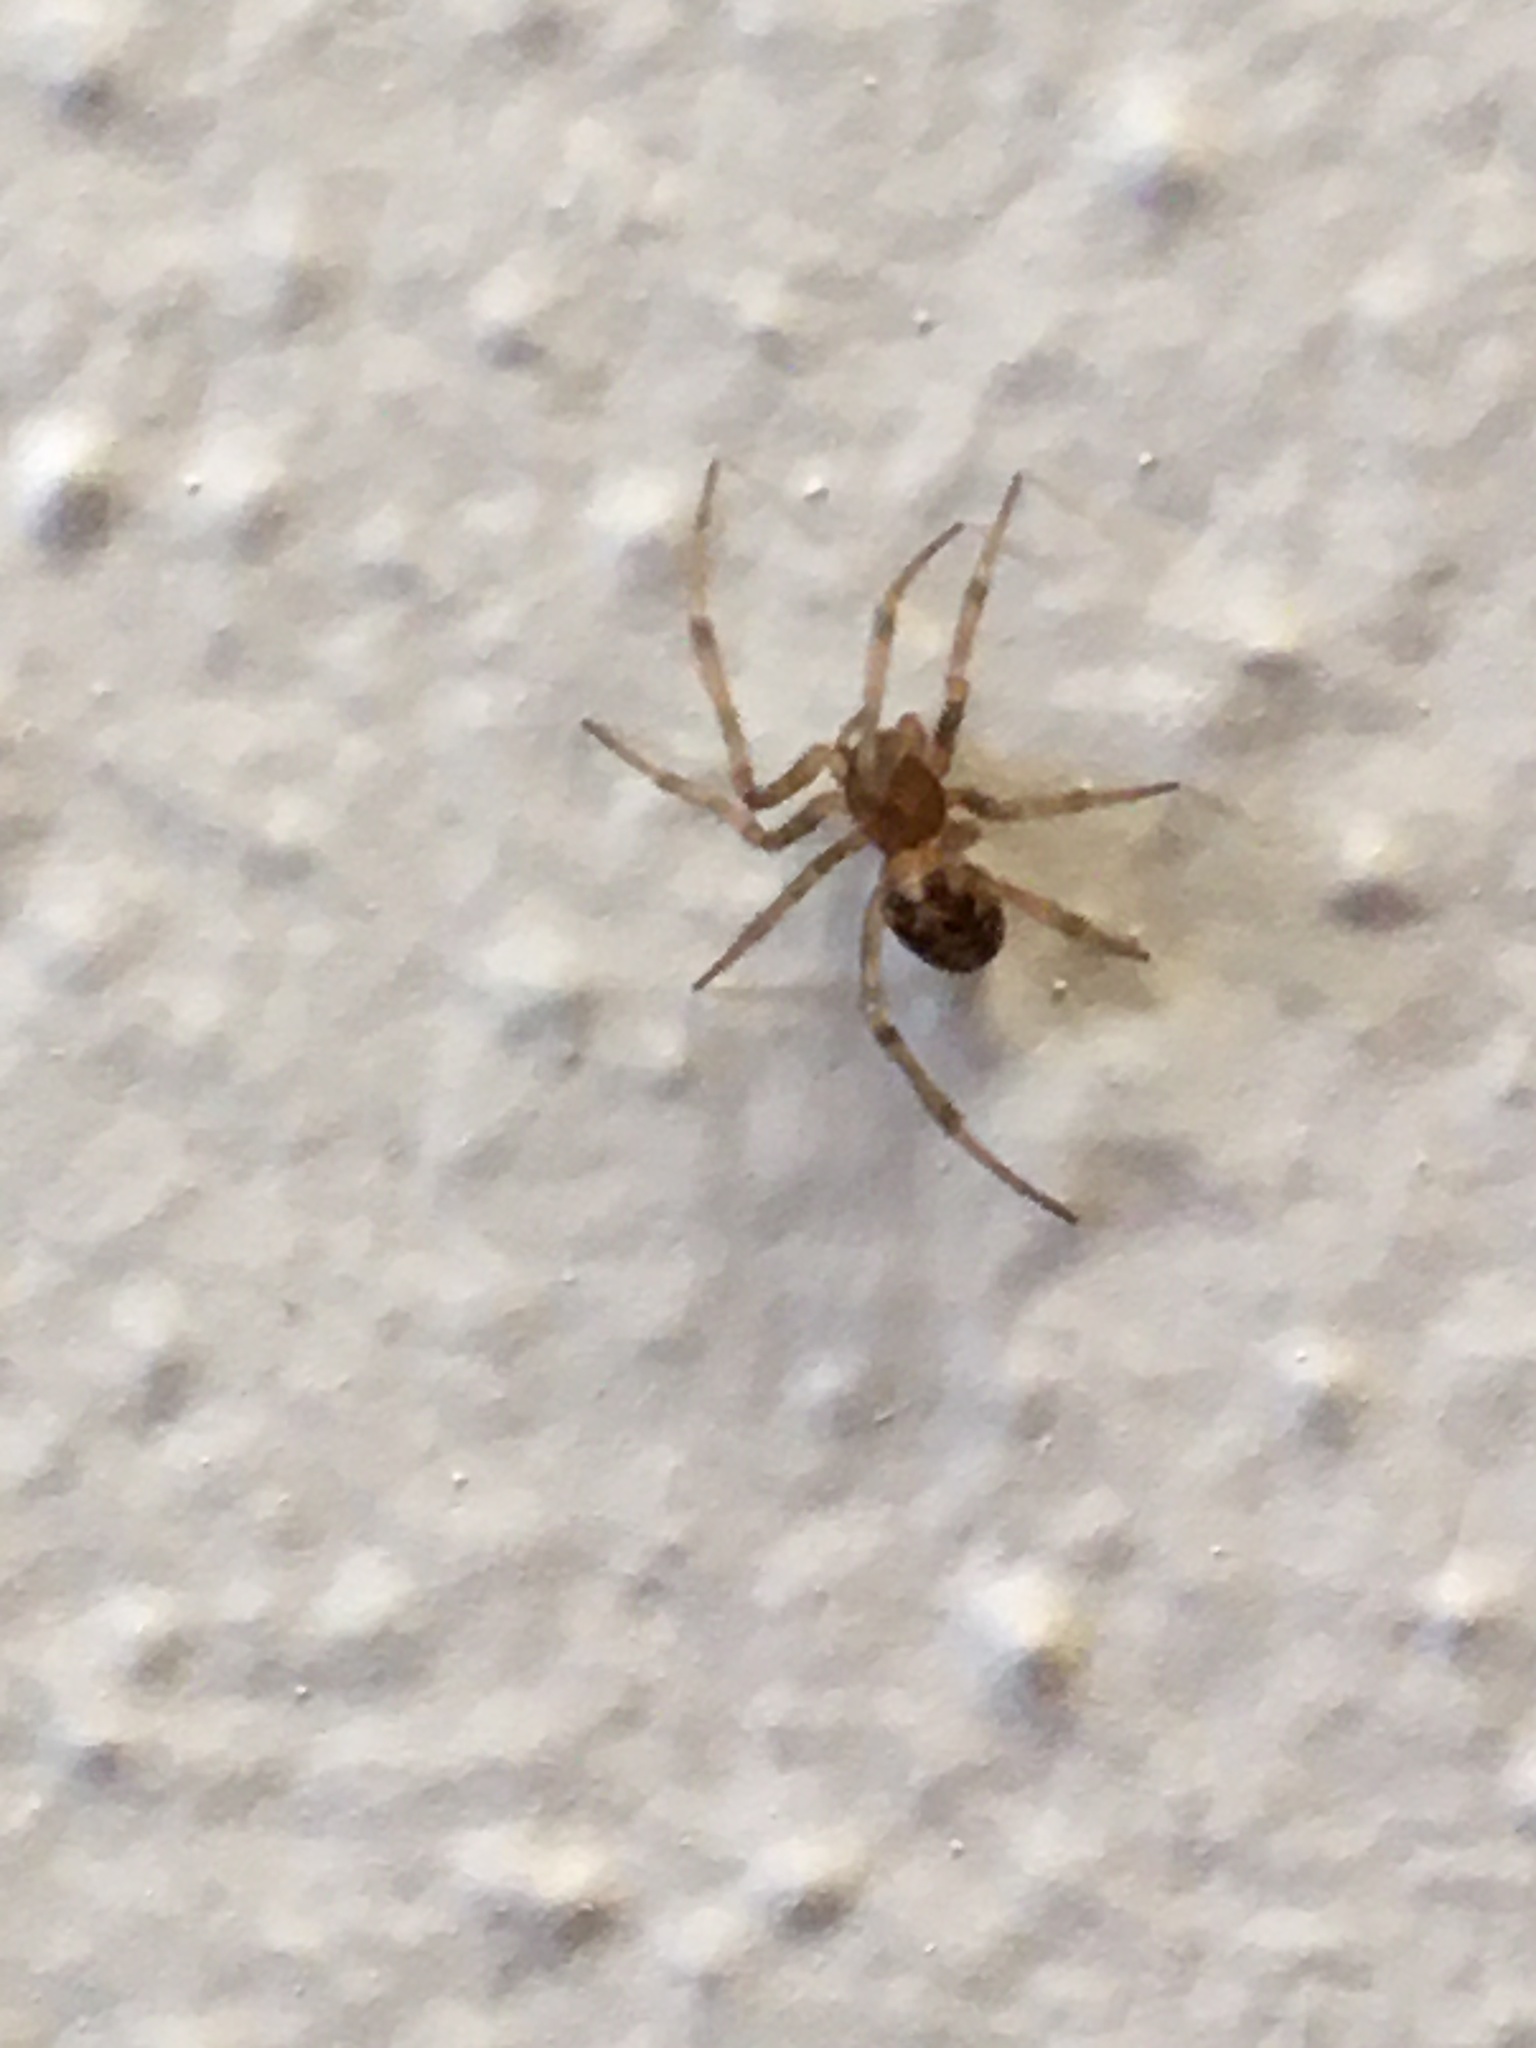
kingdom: Animalia
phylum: Arthropoda
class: Arachnida
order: Araneae
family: Theridiidae
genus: Steatoda
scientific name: Steatoda triangulosa
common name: Triangulate bud spider
